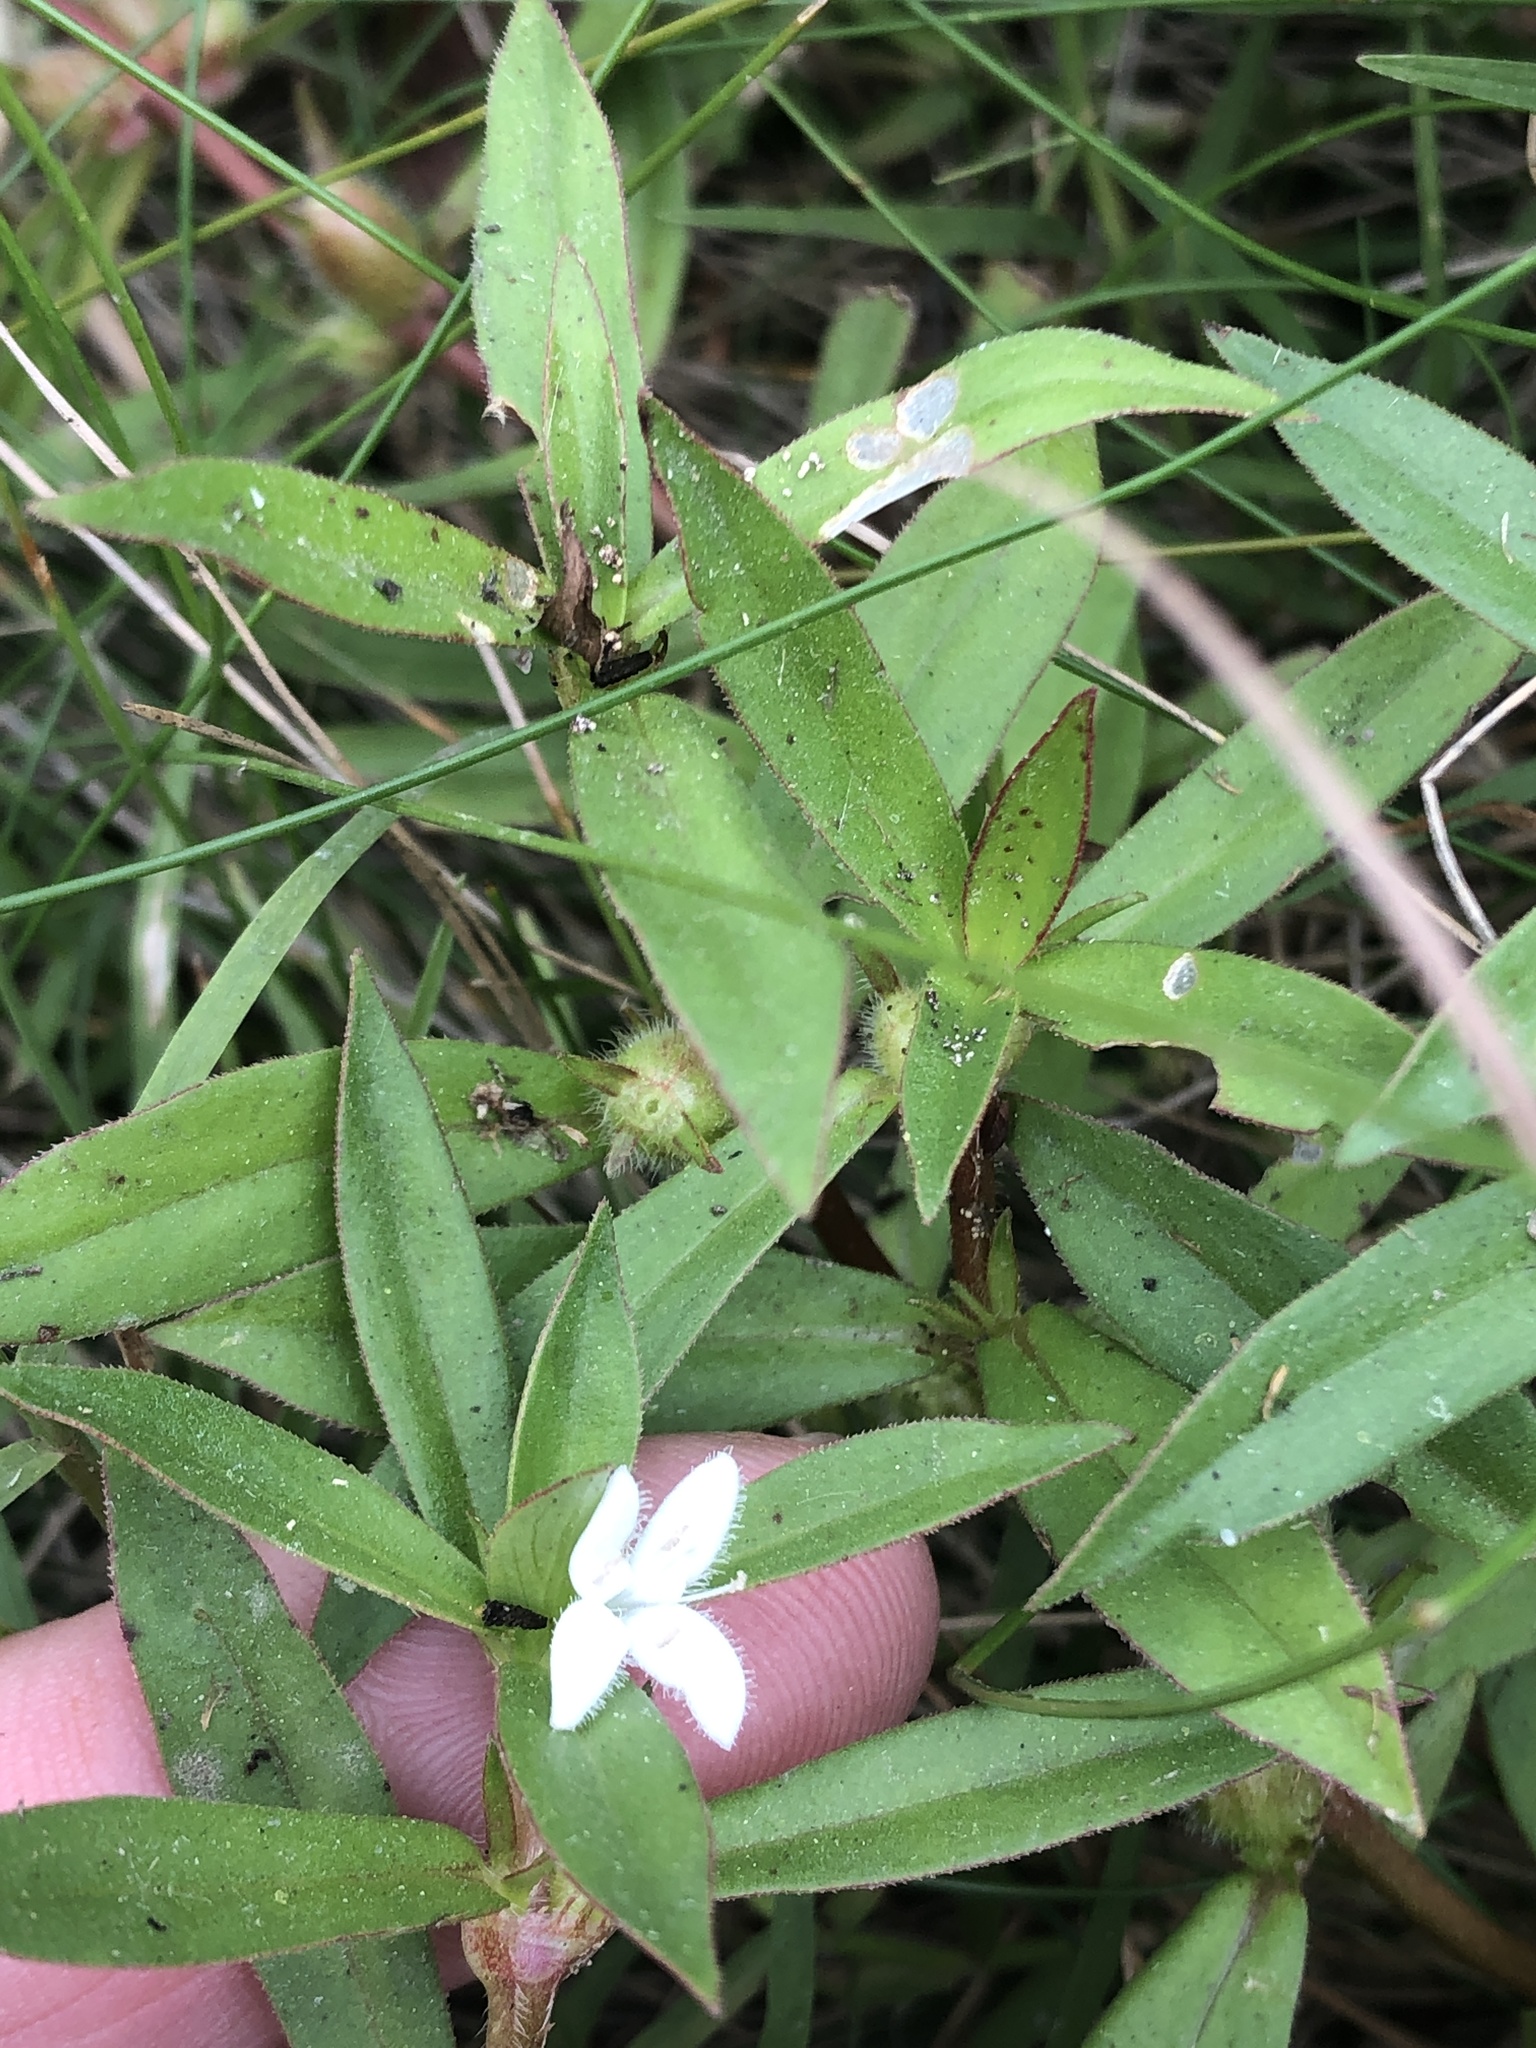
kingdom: Plantae
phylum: Tracheophyta
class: Magnoliopsida
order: Gentianales
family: Rubiaceae
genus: Diodia
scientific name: Diodia virginiana
